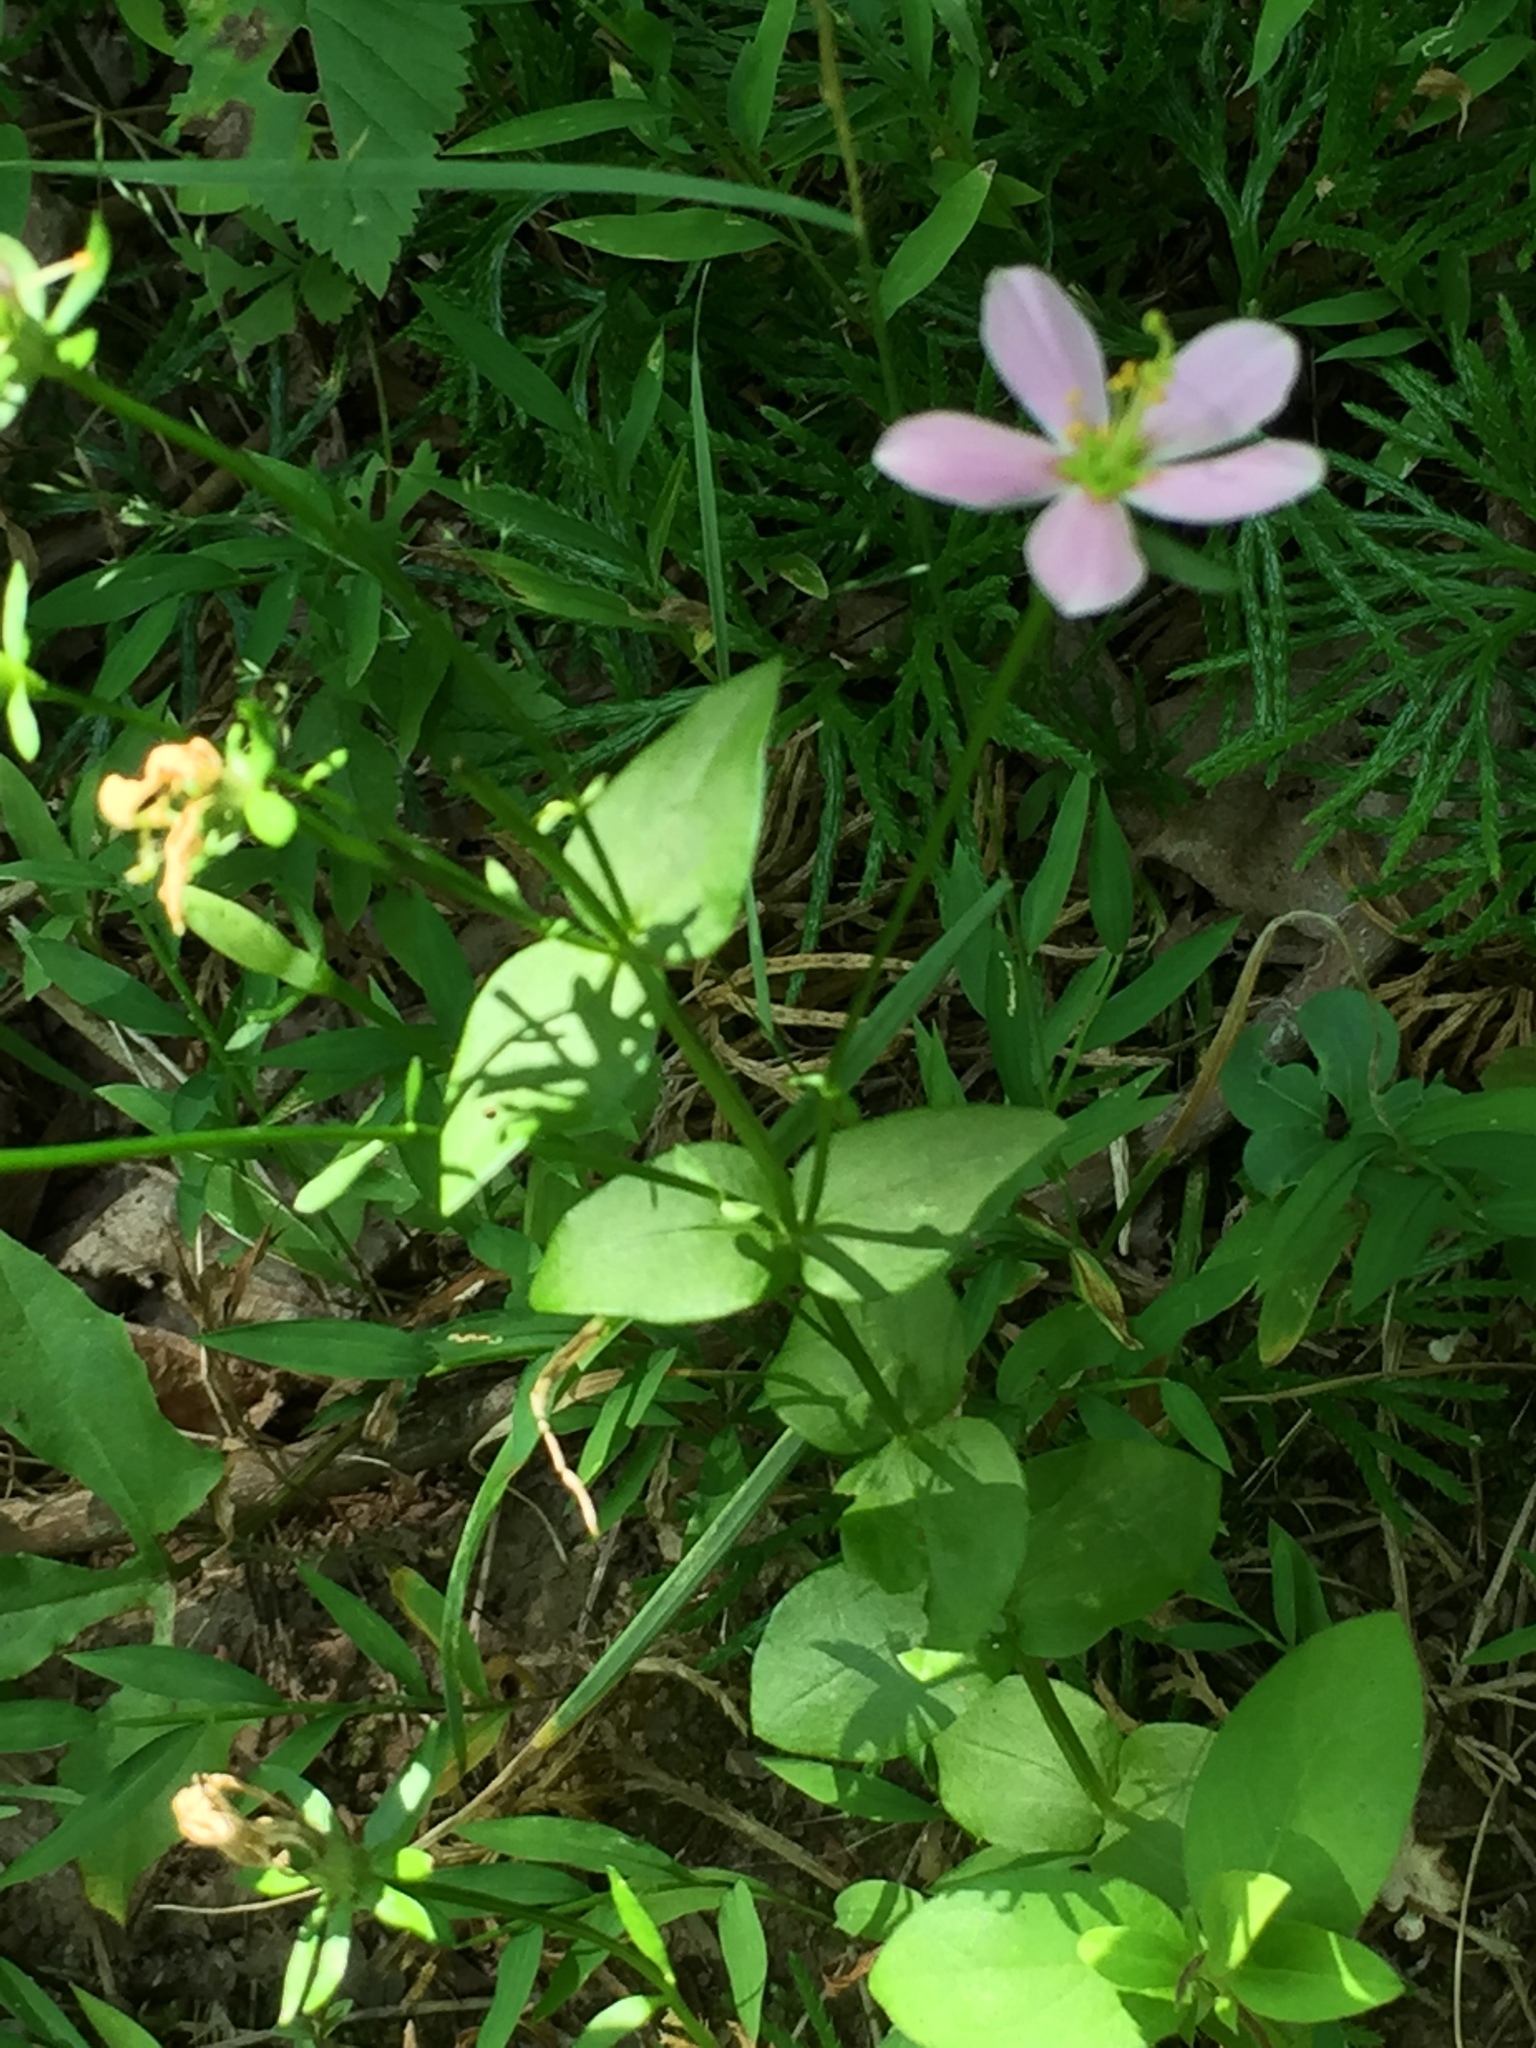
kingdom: Plantae
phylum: Tracheophyta
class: Magnoliopsida
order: Gentianales
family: Gentianaceae
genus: Sabatia
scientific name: Sabatia angularis
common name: Rose-pink
